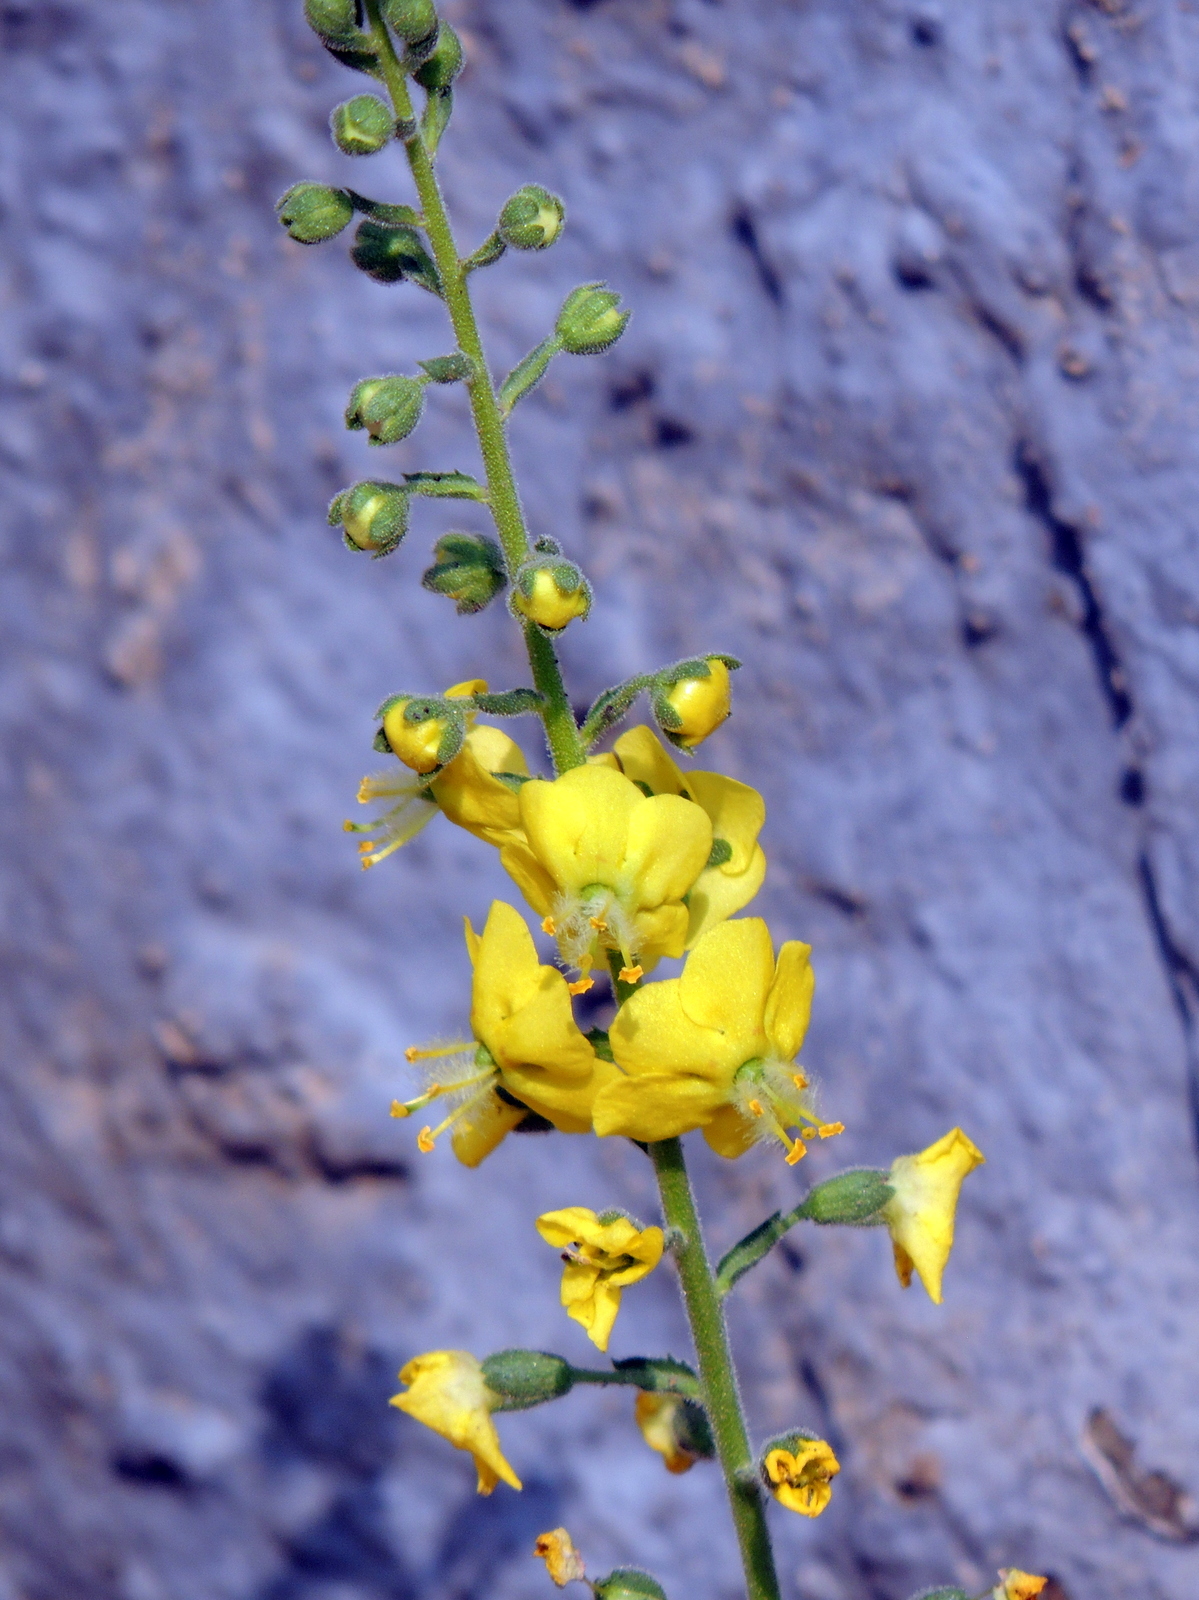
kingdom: Plantae
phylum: Tracheophyta
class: Magnoliopsida
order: Lamiales
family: Scrophulariaceae
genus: Verbascum
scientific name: Verbascum coromandelianum
